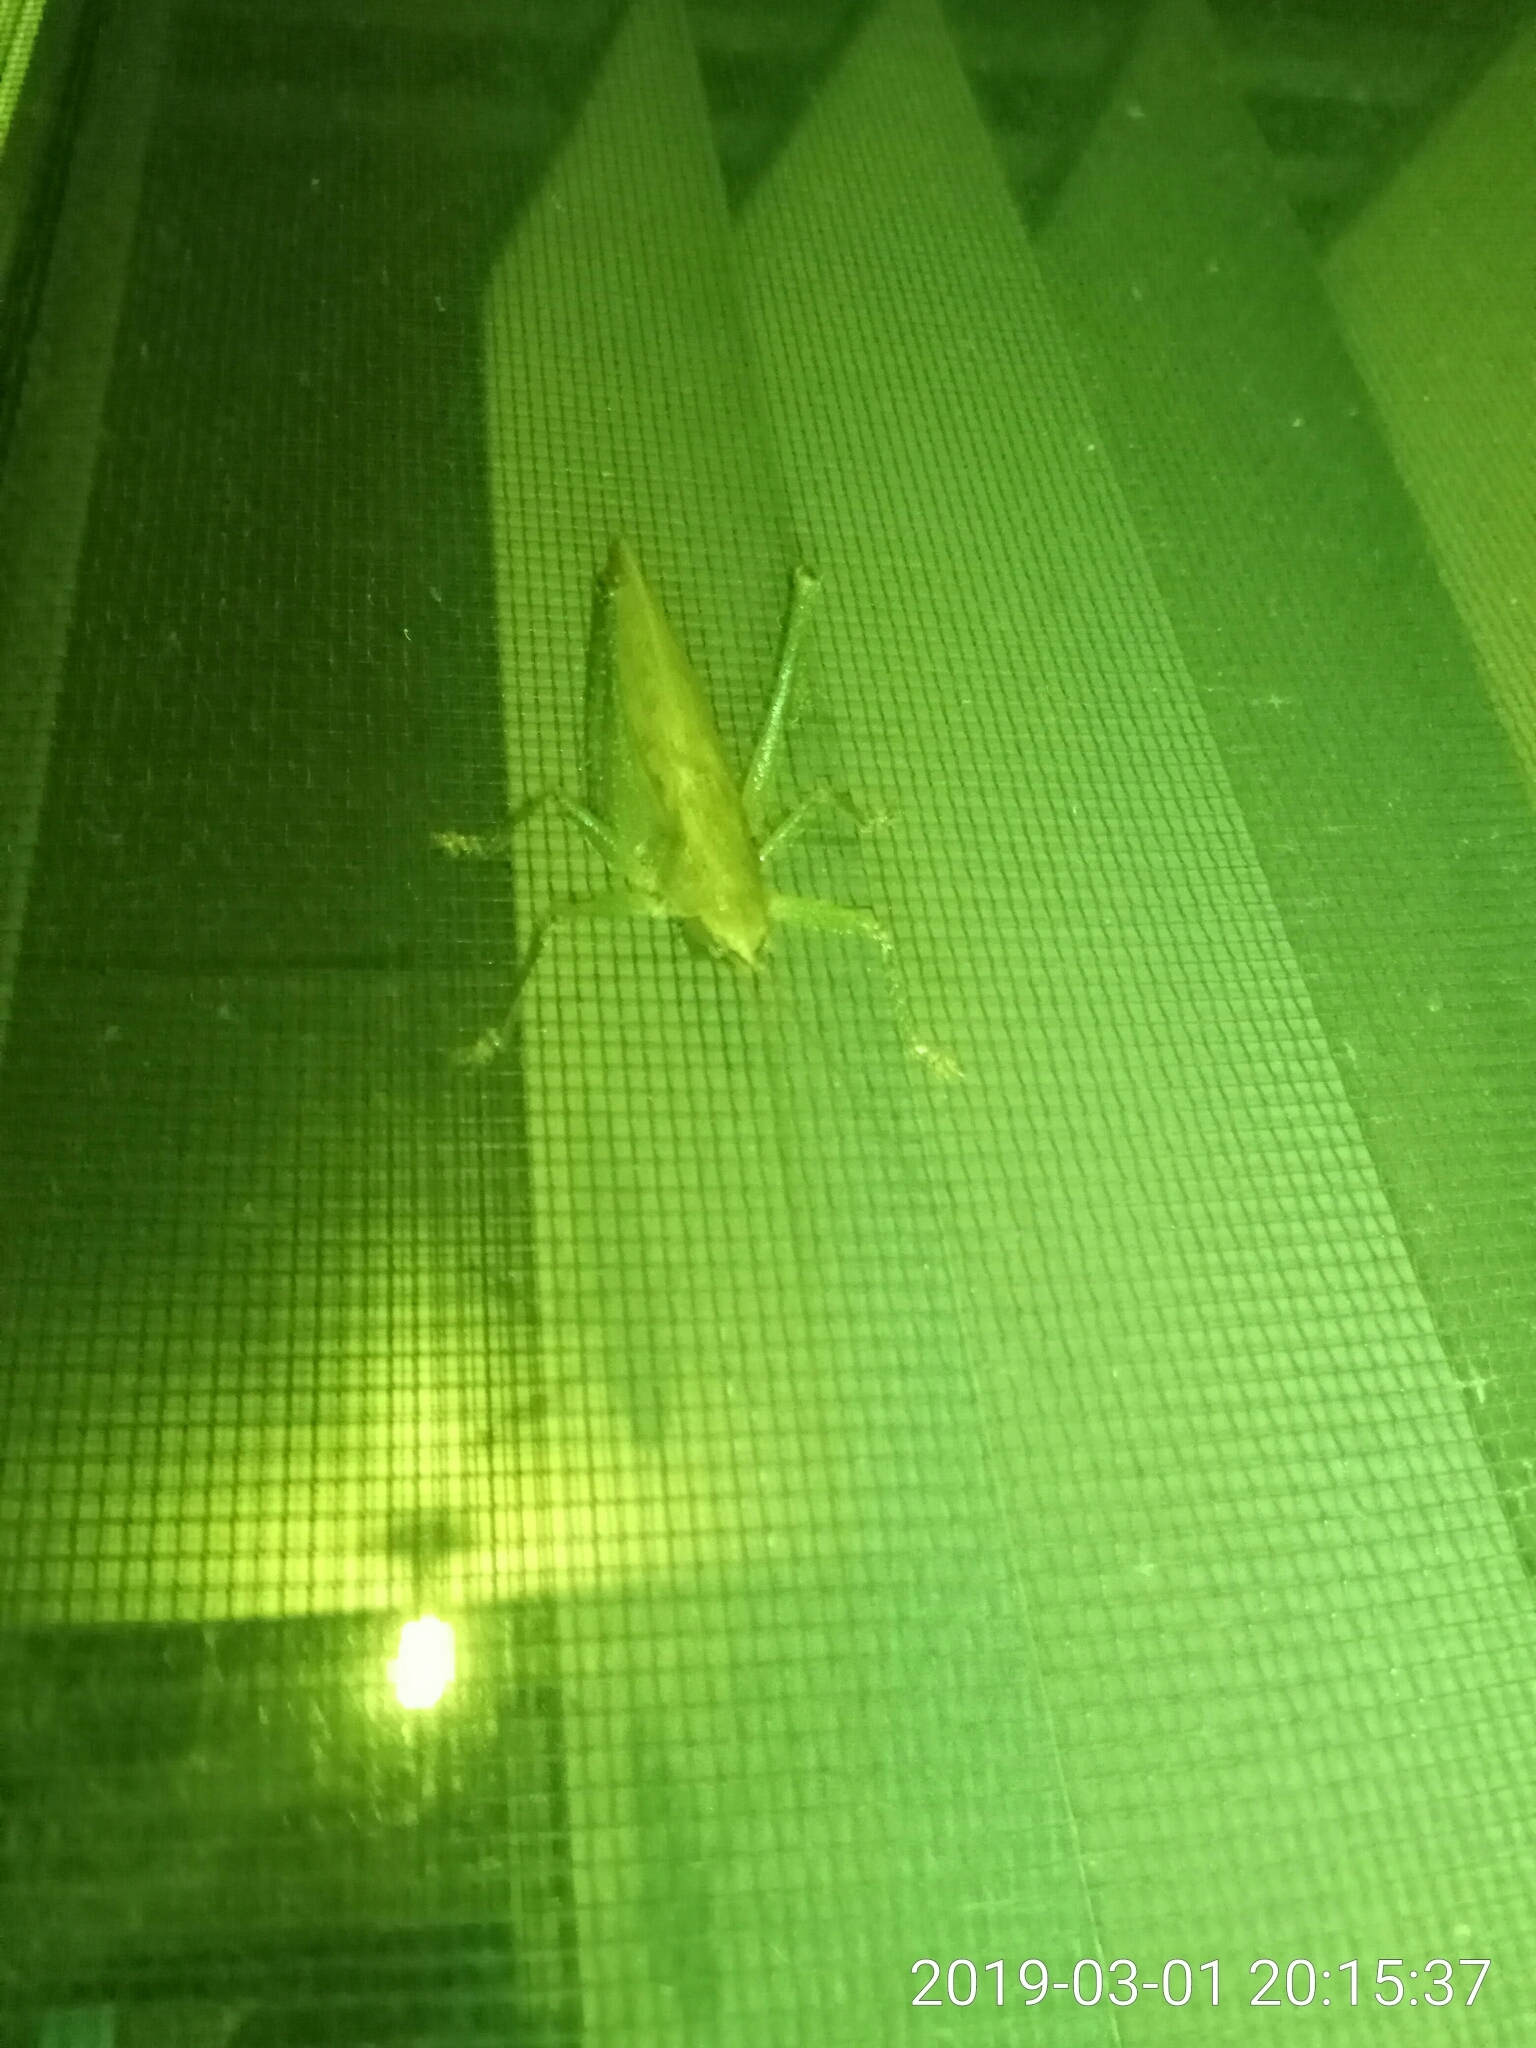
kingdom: Animalia
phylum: Arthropoda
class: Insecta
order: Orthoptera
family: Tettigoniidae
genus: Austrosalomona
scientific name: Austrosalomona falcata
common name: Olive-green coastal katydid
